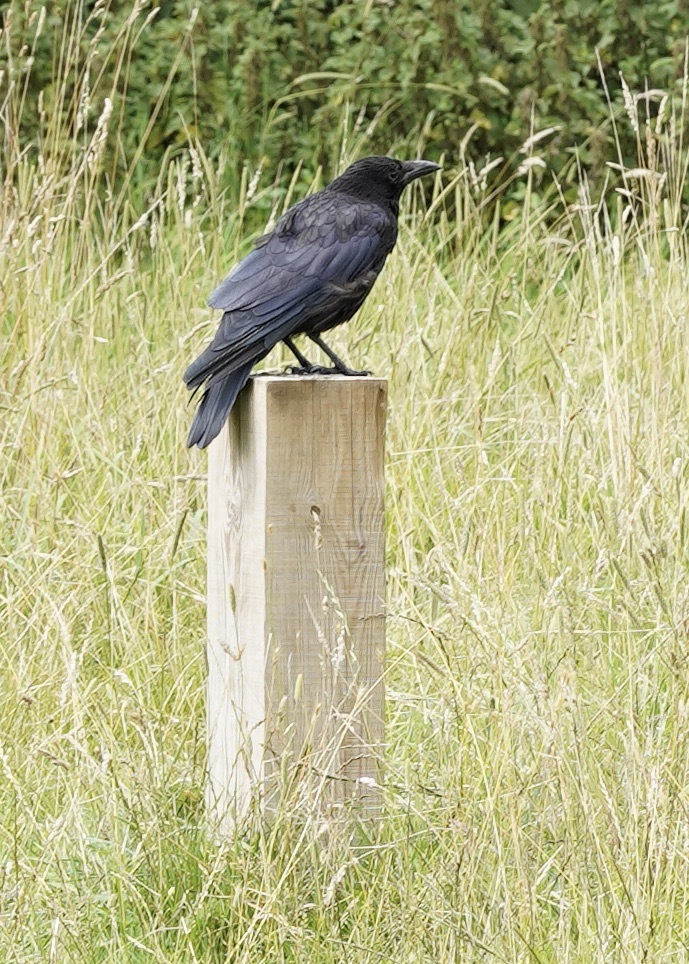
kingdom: Animalia
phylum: Chordata
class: Aves
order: Passeriformes
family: Corvidae
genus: Corvus
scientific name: Corvus corone
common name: Carrion crow
